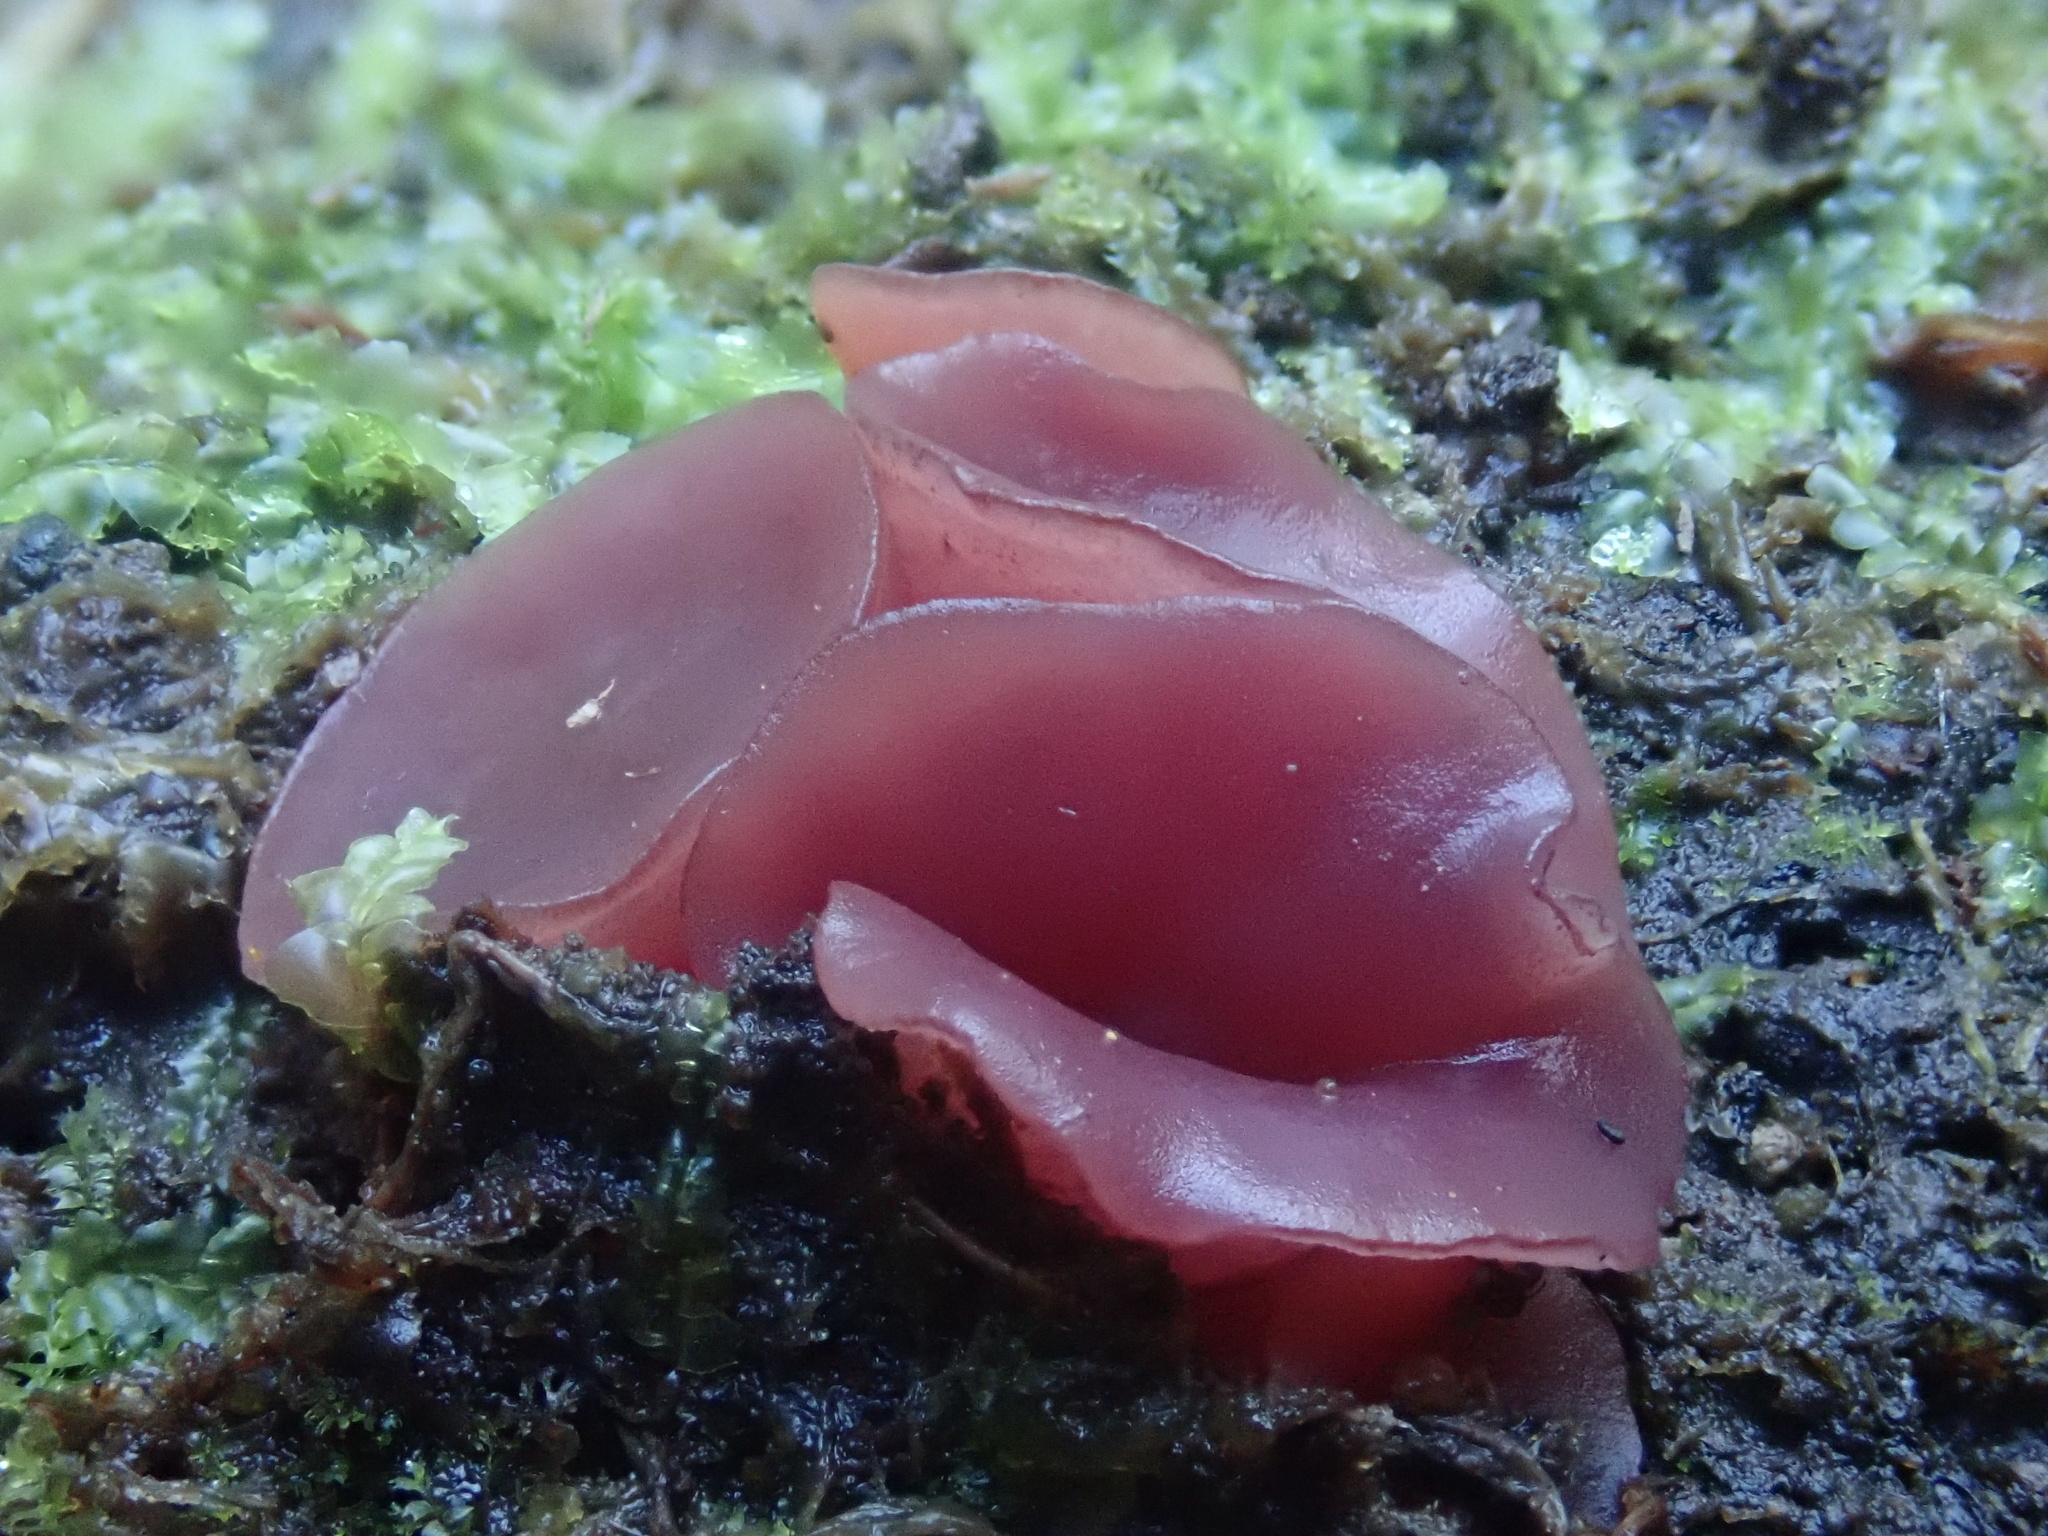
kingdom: Fungi
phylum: Ascomycota
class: Leotiomycetes
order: Helotiales
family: Gelatinodiscaceae
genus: Ascocoryne
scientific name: Ascocoryne sarcoides
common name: Purple jellydisc
